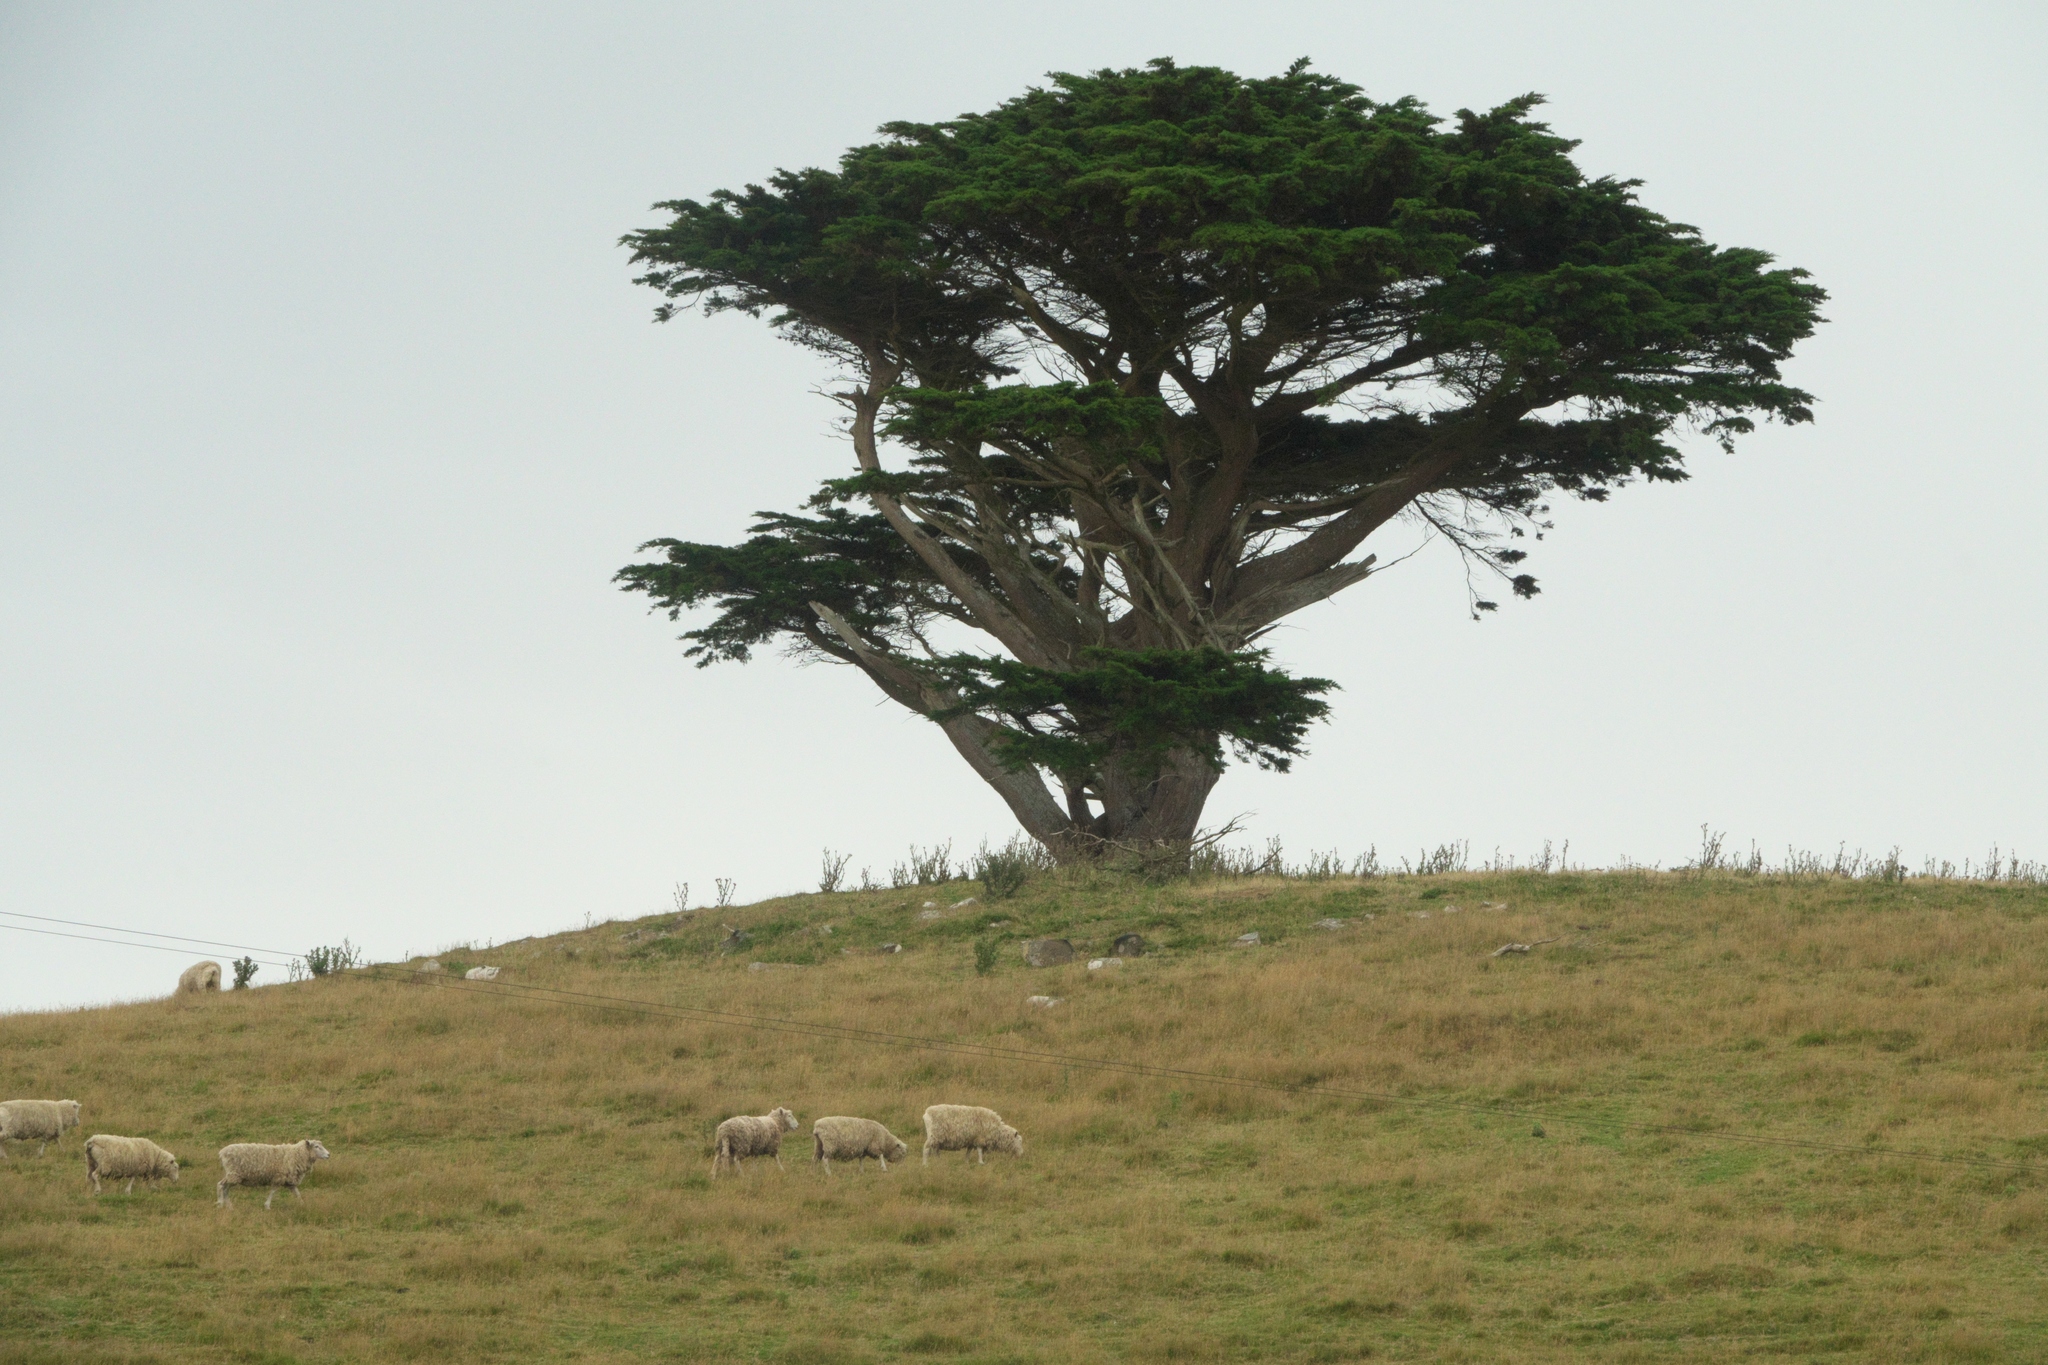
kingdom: Plantae
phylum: Tracheophyta
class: Pinopsida
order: Pinales
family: Cupressaceae
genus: Cupressus
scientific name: Cupressus macrocarpa
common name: Monterey cypress
